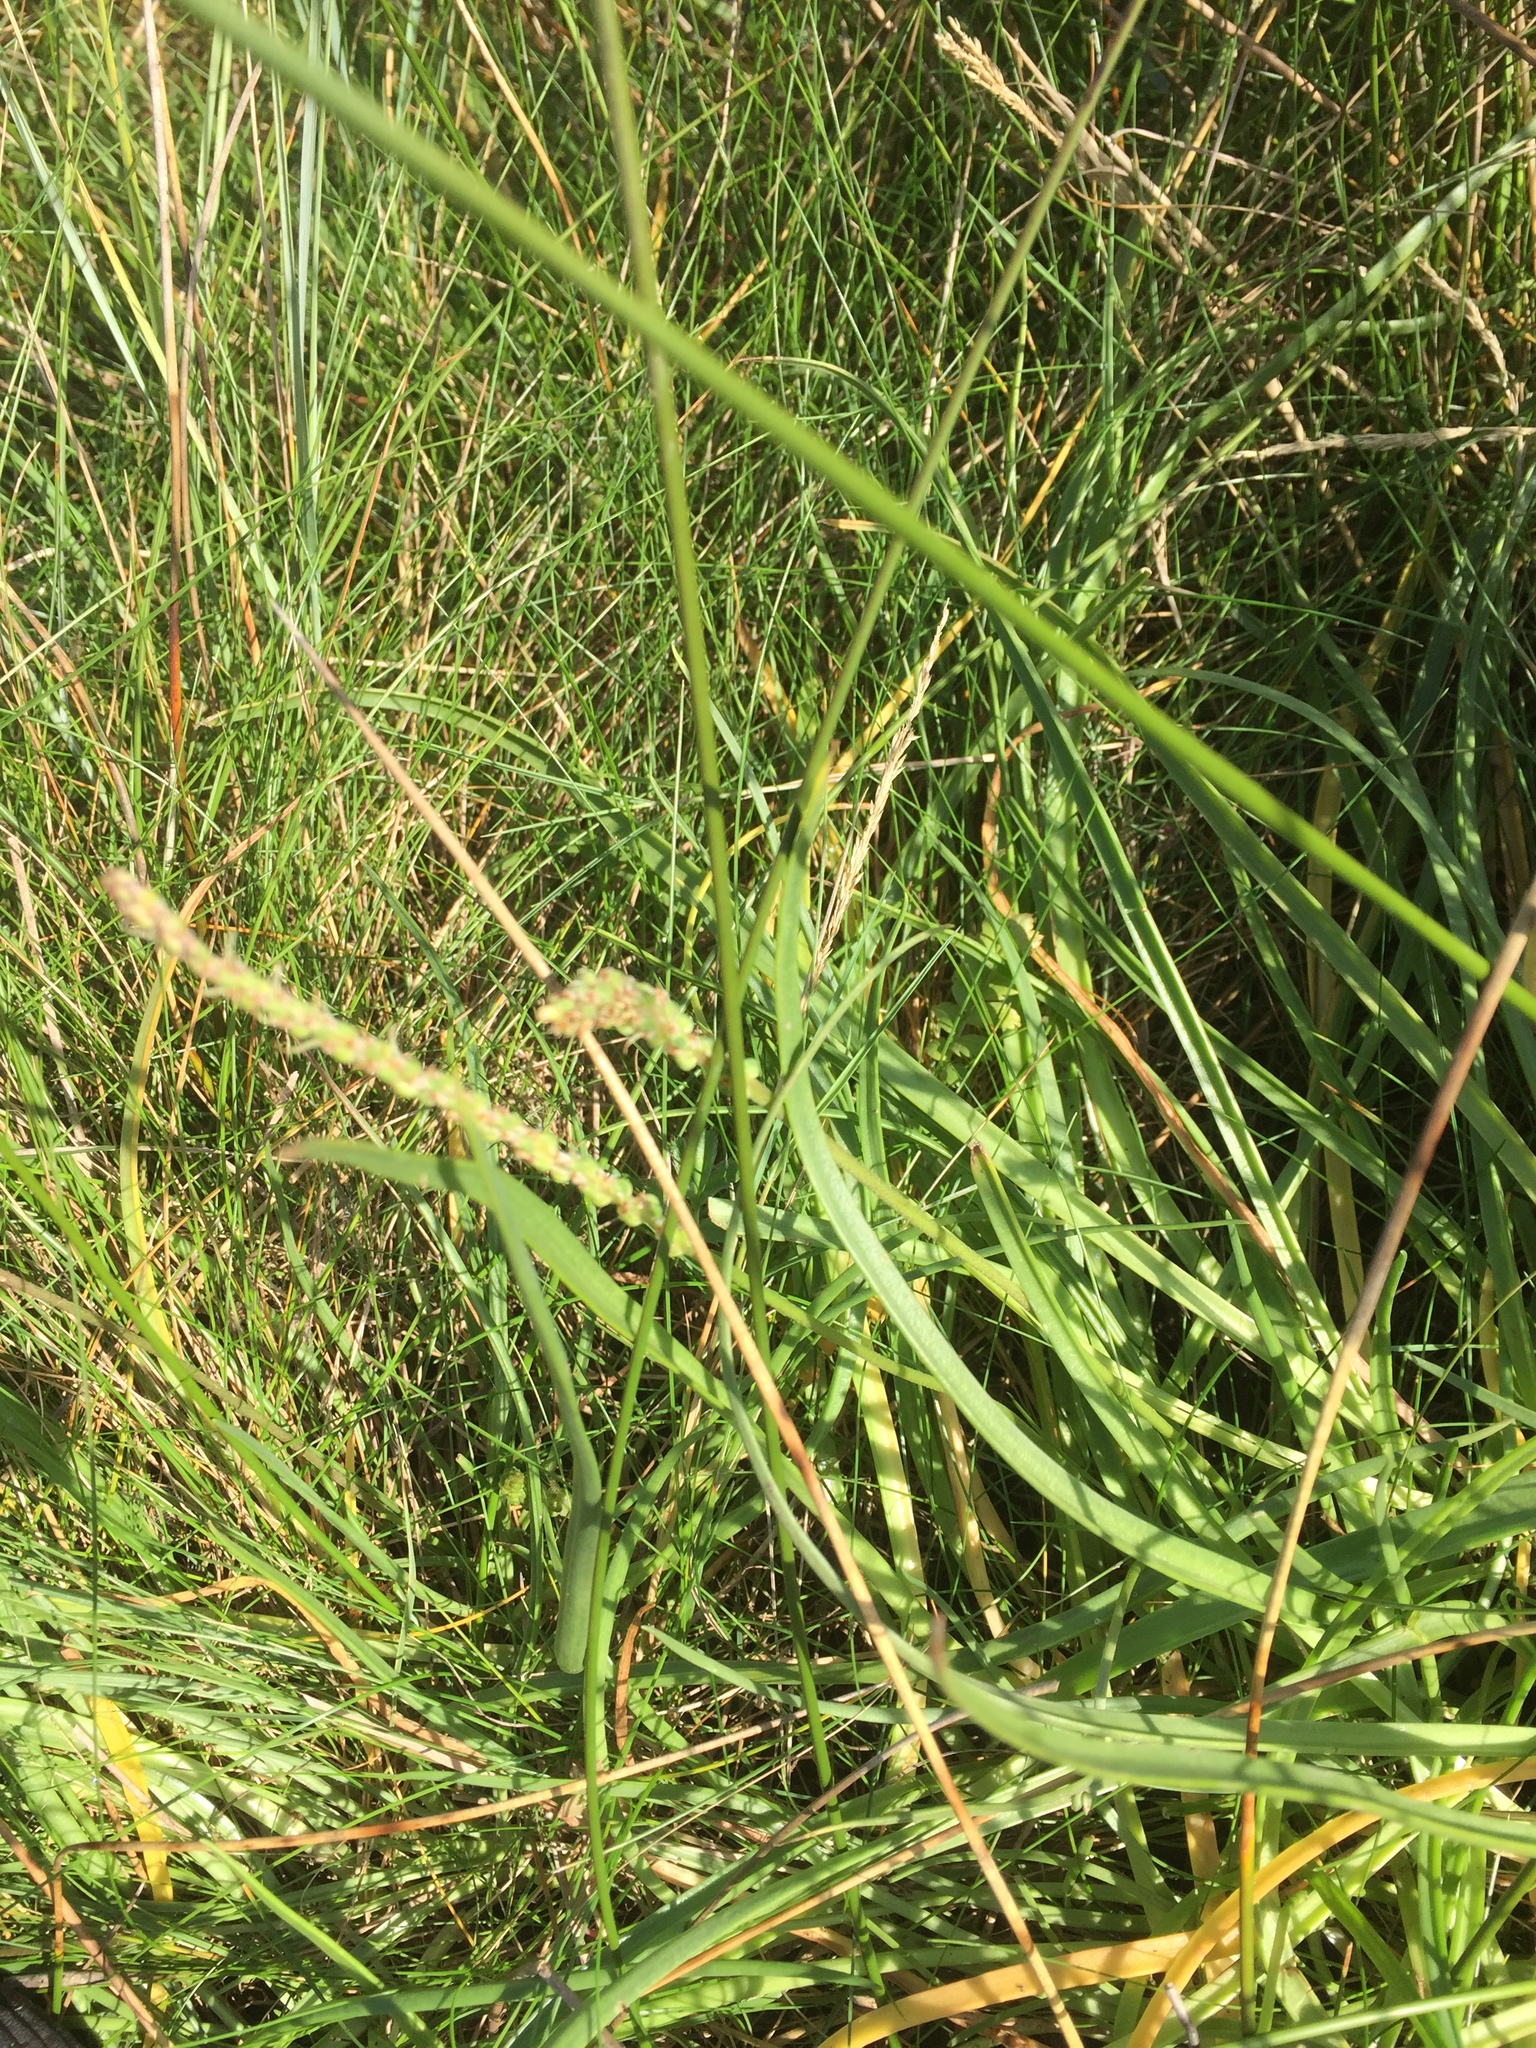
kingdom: Plantae
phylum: Tracheophyta
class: Magnoliopsida
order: Lamiales
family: Plantaginaceae
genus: Plantago
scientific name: Plantago maritima
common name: Sea plantain
